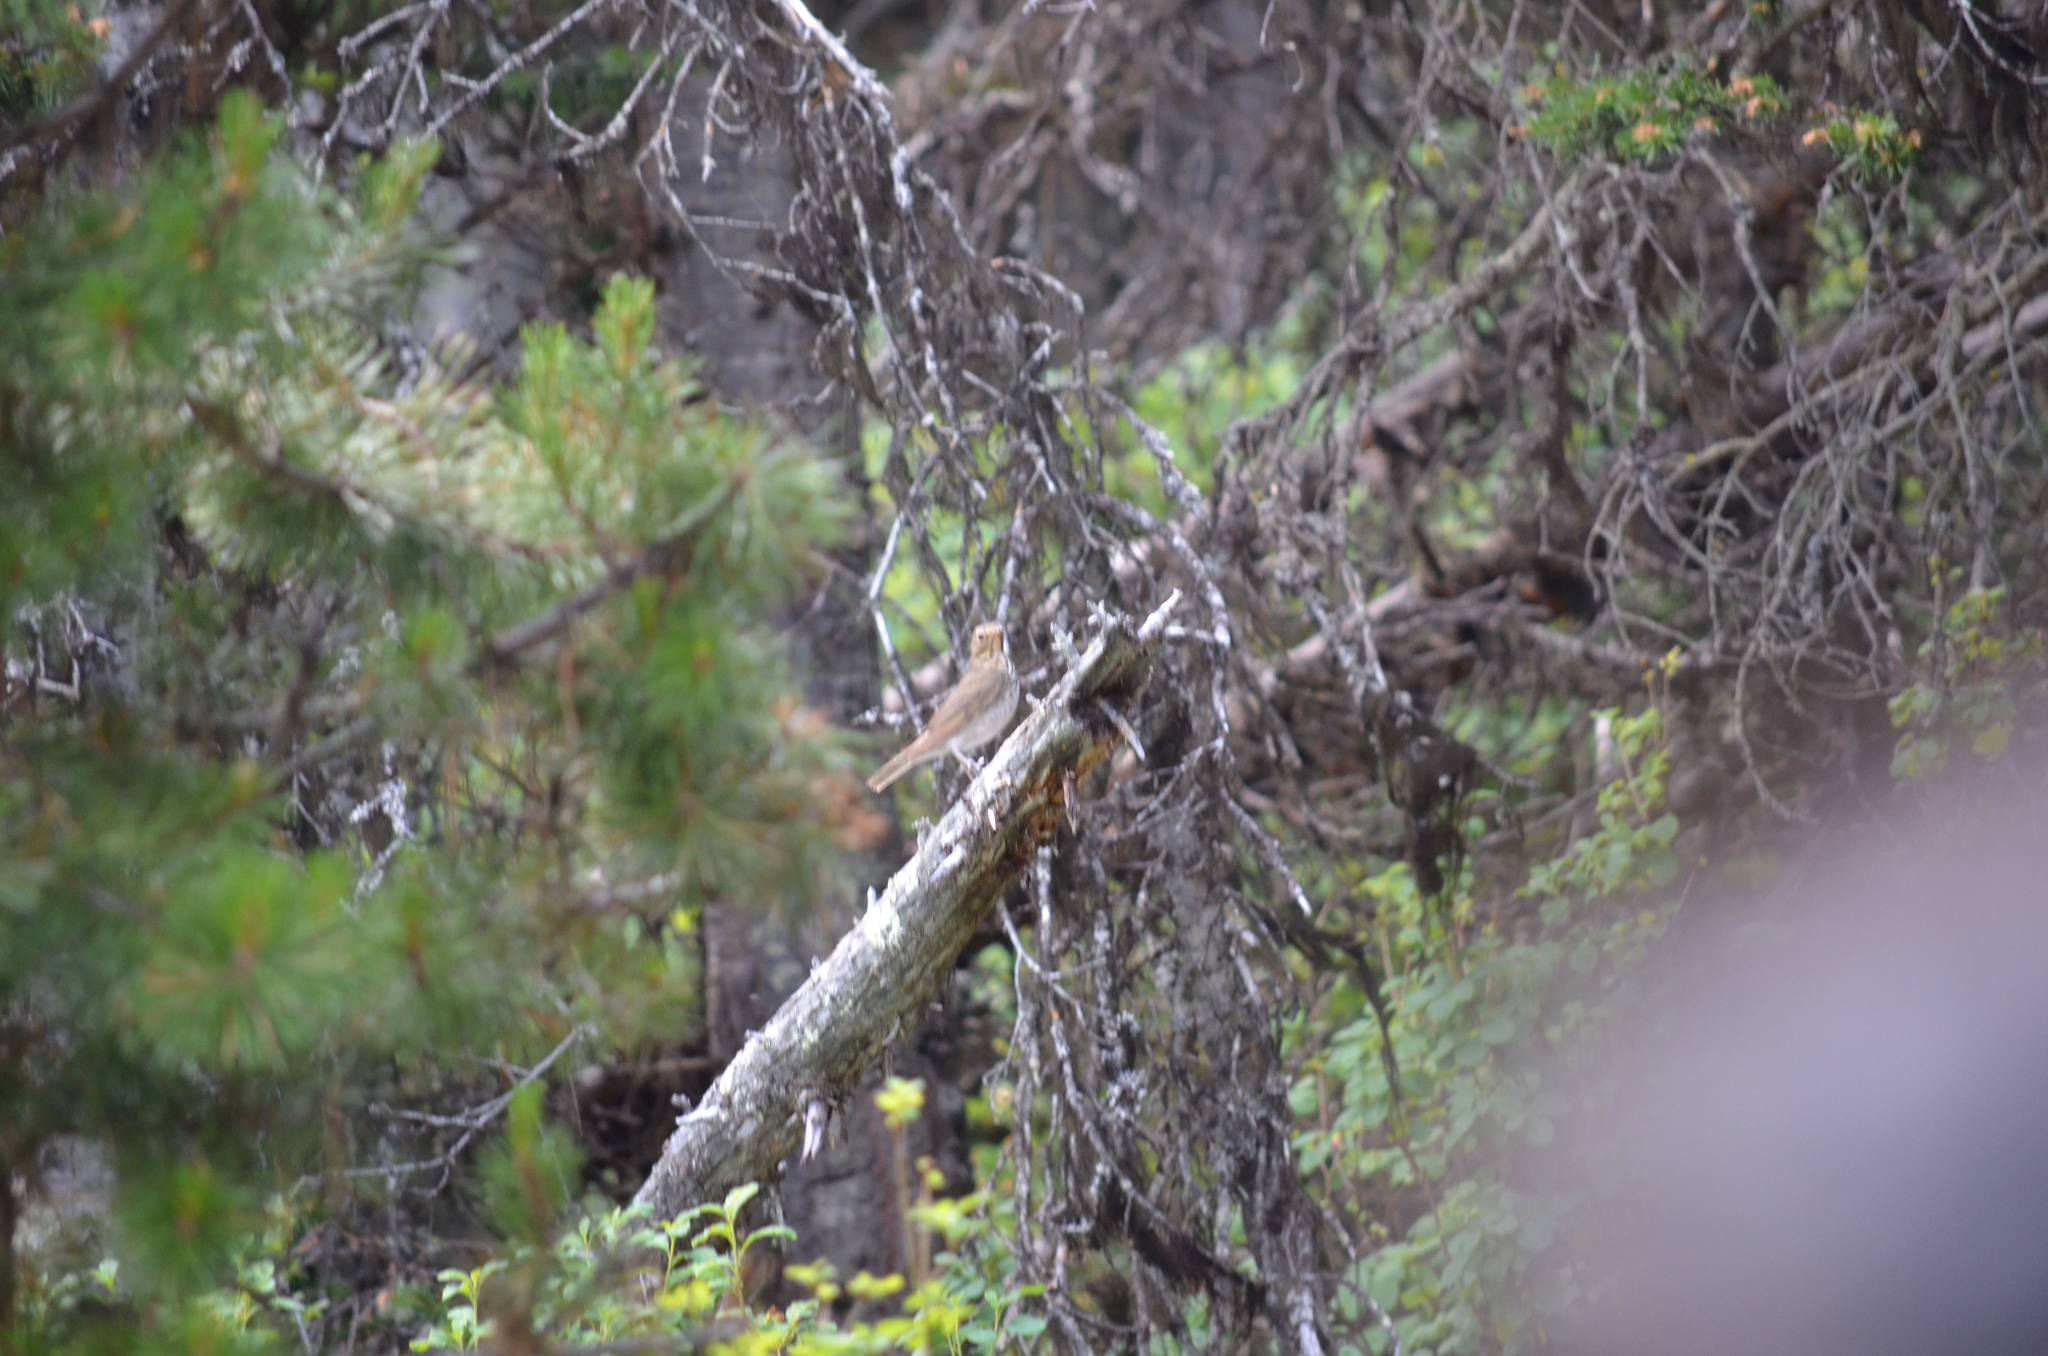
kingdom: Animalia
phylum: Chordata
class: Aves
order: Passeriformes
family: Turdidae
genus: Catharus
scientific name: Catharus ustulatus
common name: Swainson's thrush
